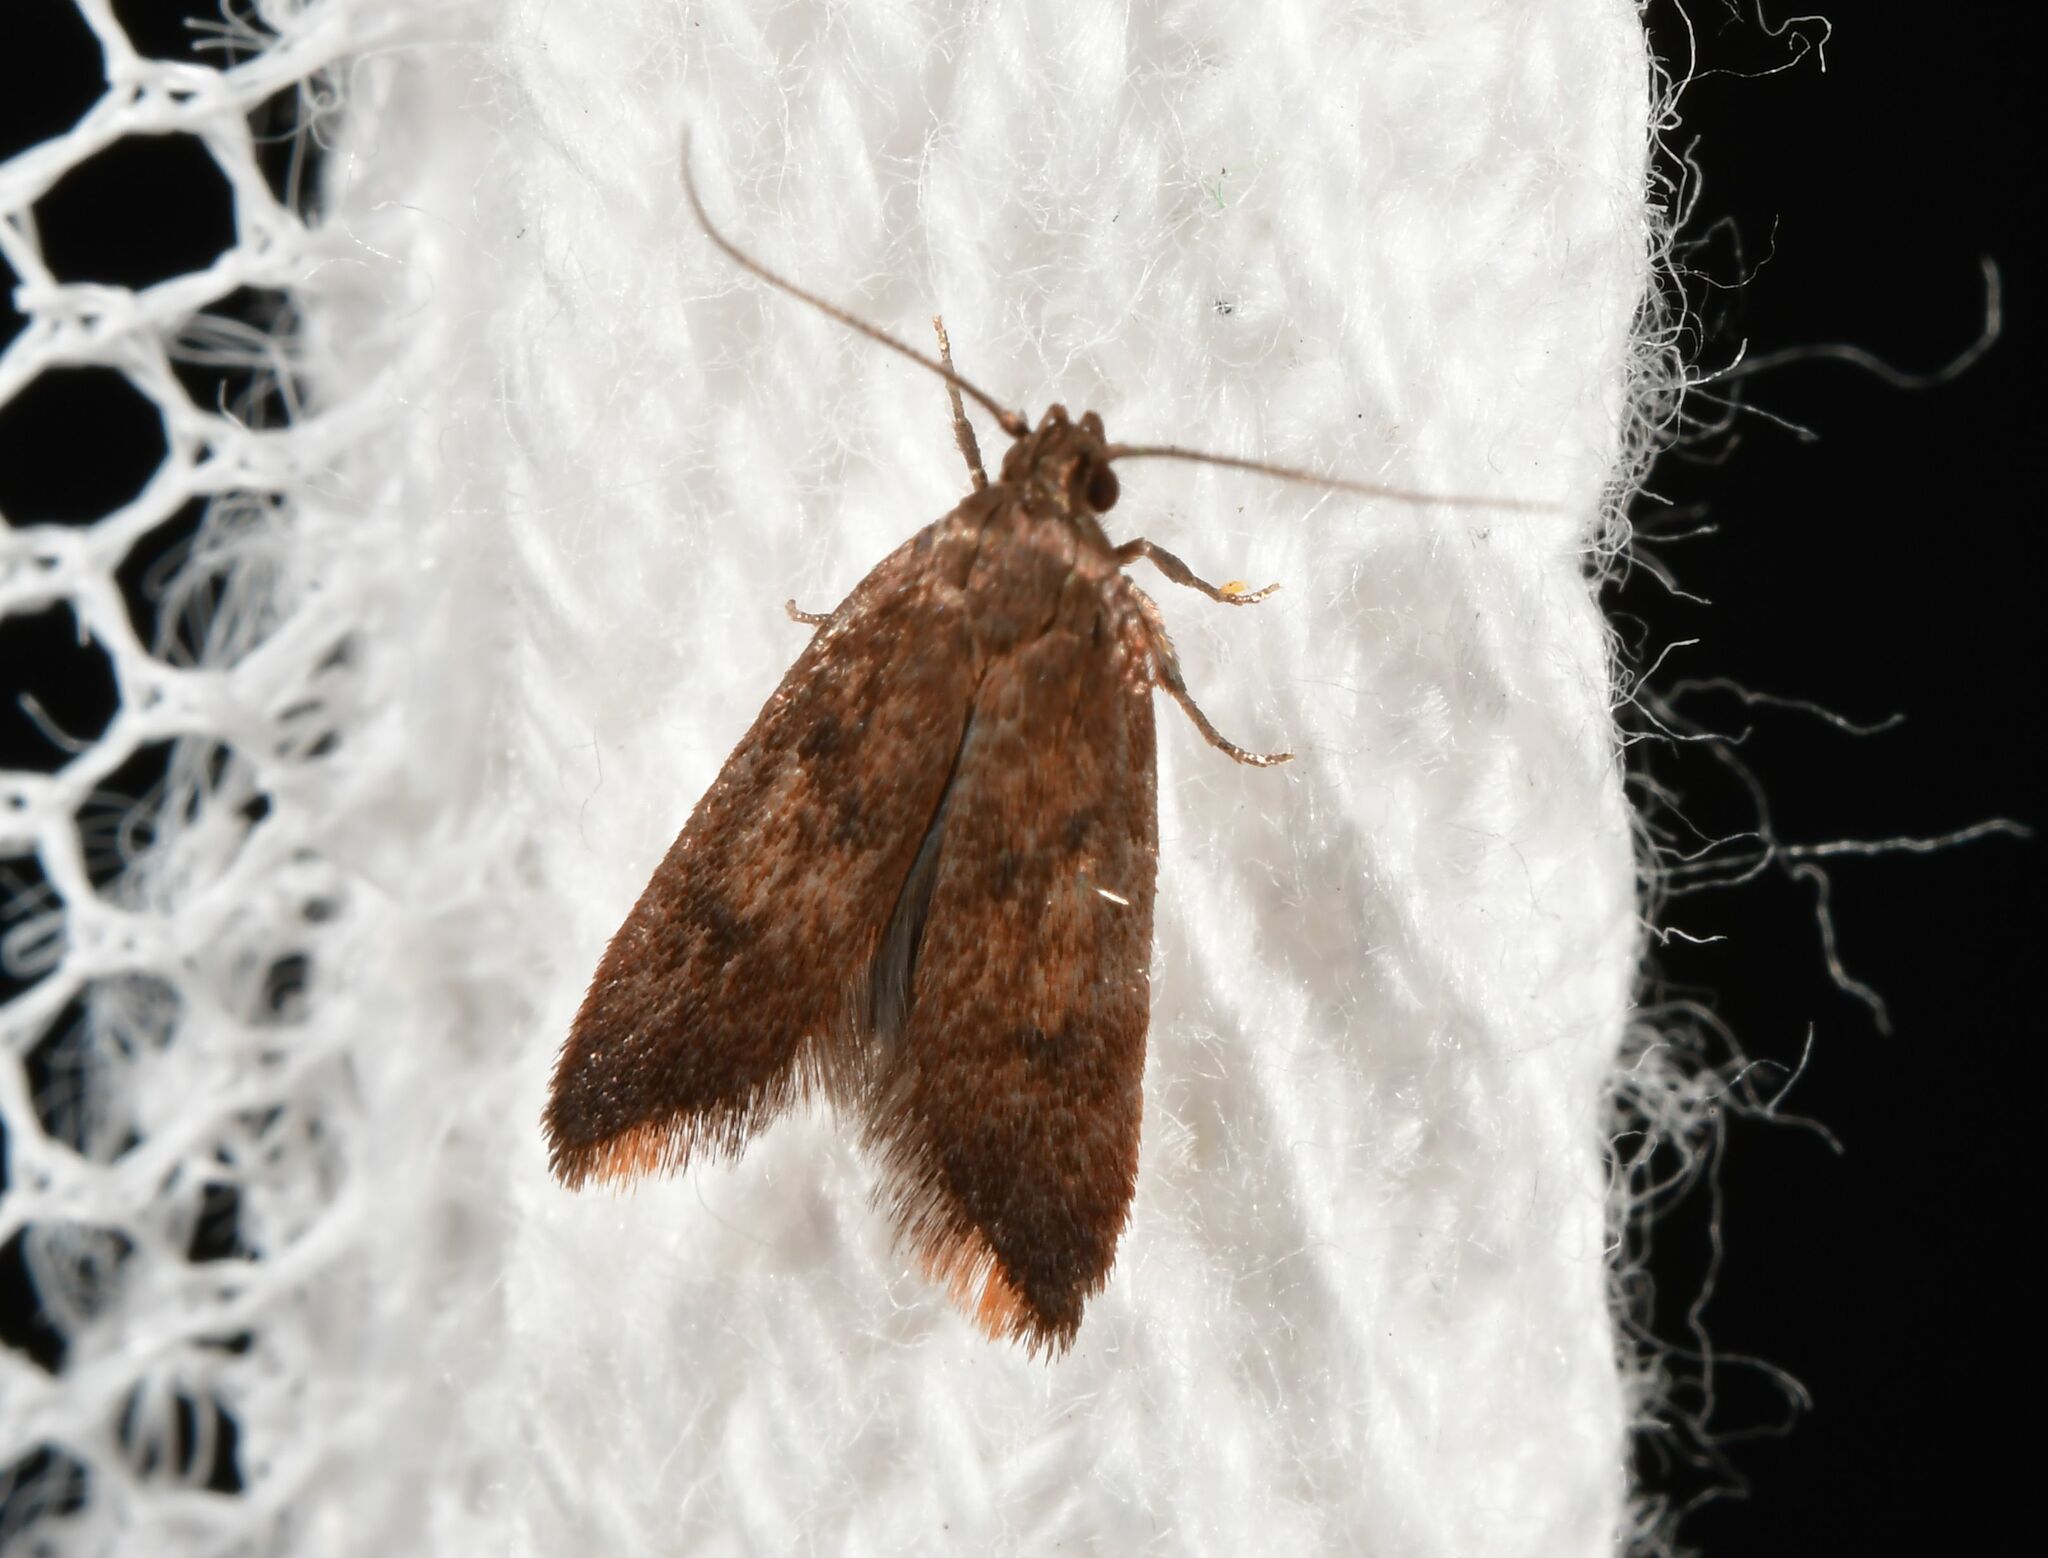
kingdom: Animalia
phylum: Arthropoda
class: Insecta
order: Lepidoptera
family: Oecophoridae
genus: Tachystola
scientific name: Tachystola acroxantha
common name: Ruddy streak
